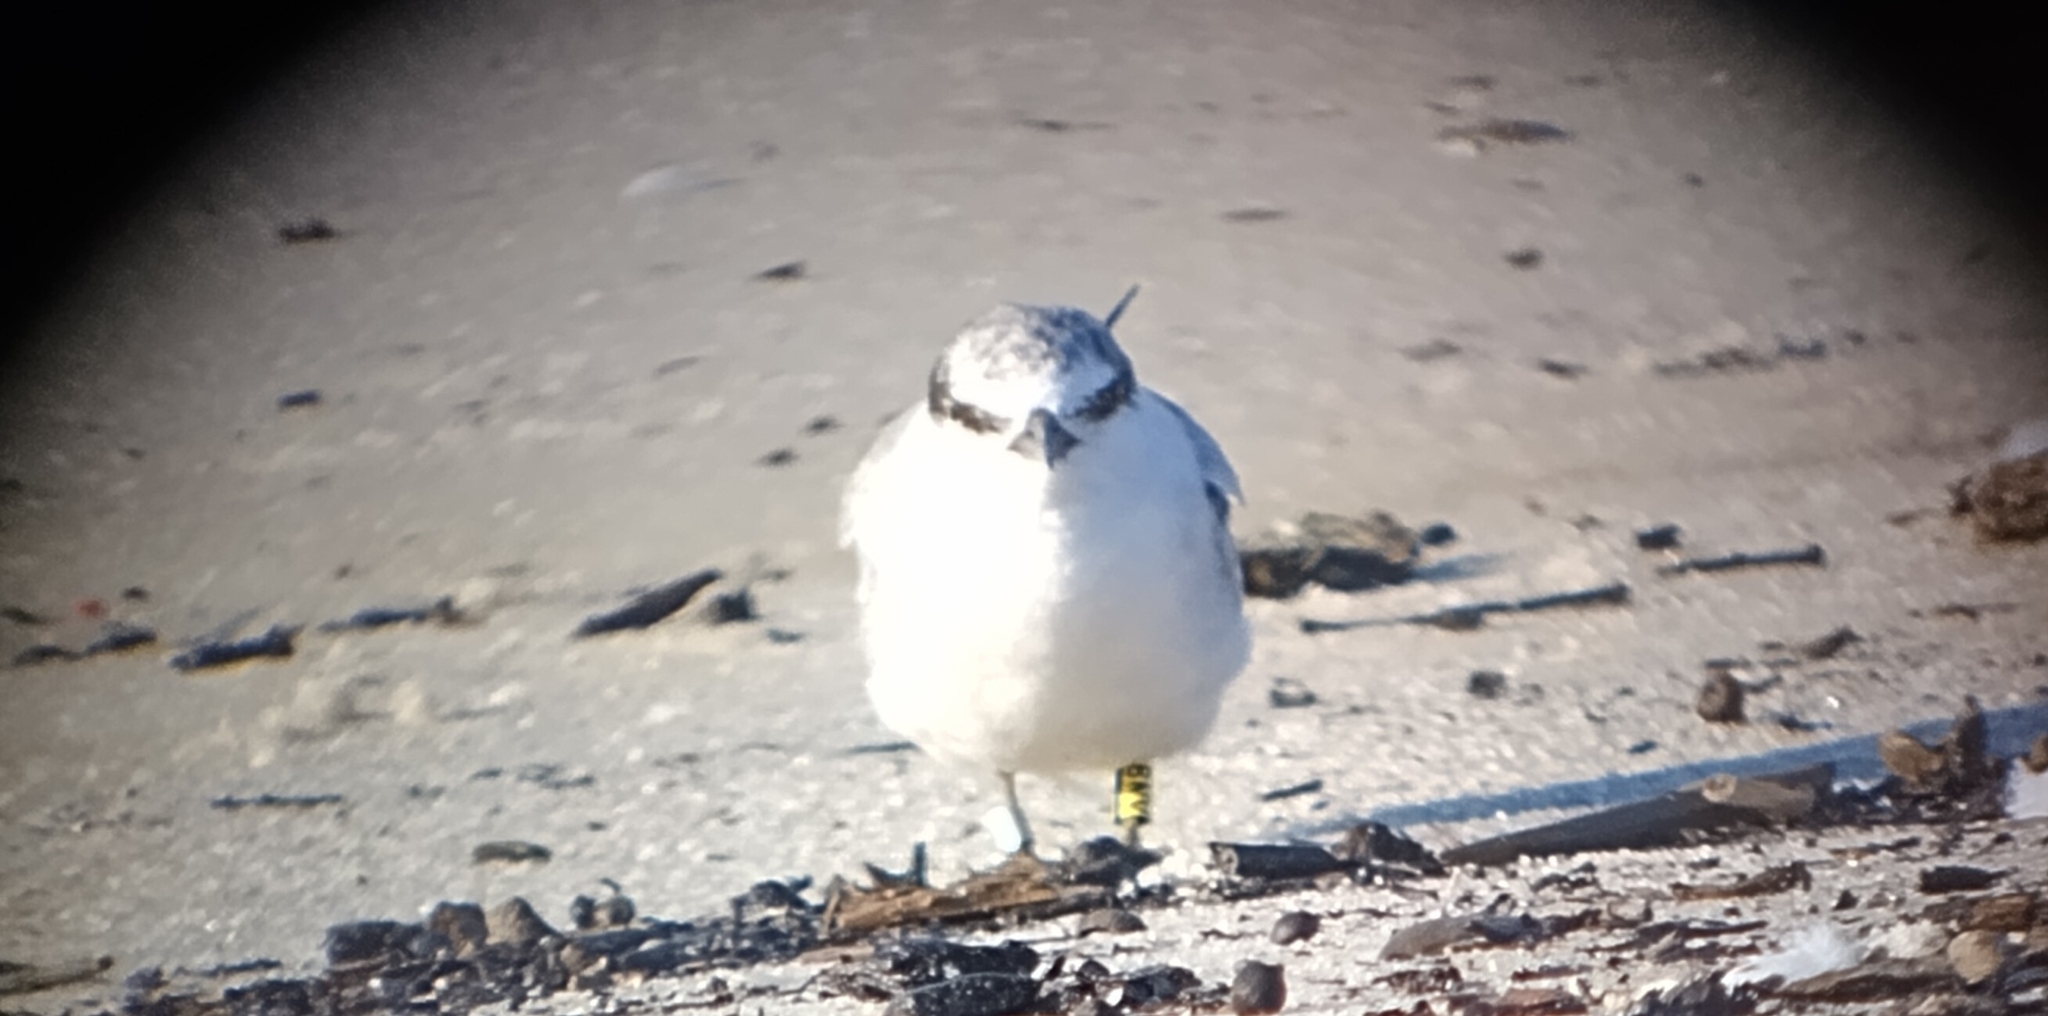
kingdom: Animalia
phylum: Chordata
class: Aves
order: Charadriiformes
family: Laridae
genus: Sternula
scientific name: Sternula antillarum
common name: Least tern
